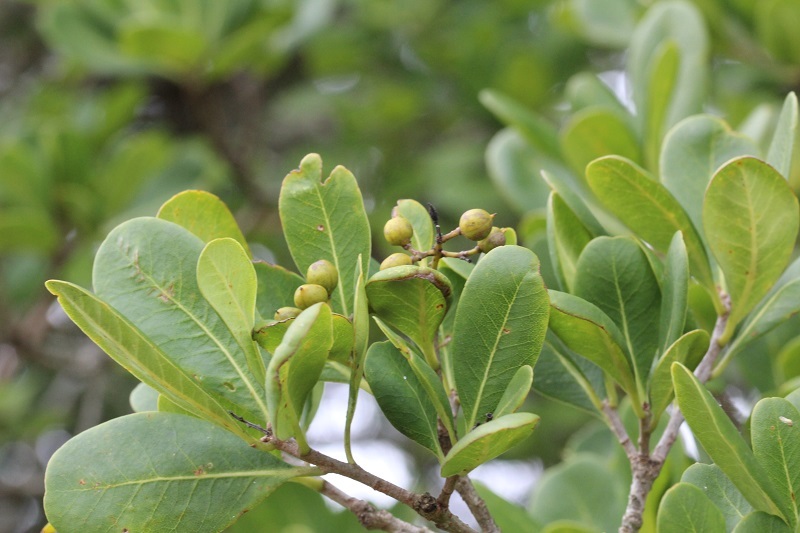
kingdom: Plantae
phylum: Tracheophyta
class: Magnoliopsida
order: Apiales
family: Pittosporaceae
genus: Pittosporum
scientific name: Pittosporum viridiflorum
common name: Cape cheesewood
